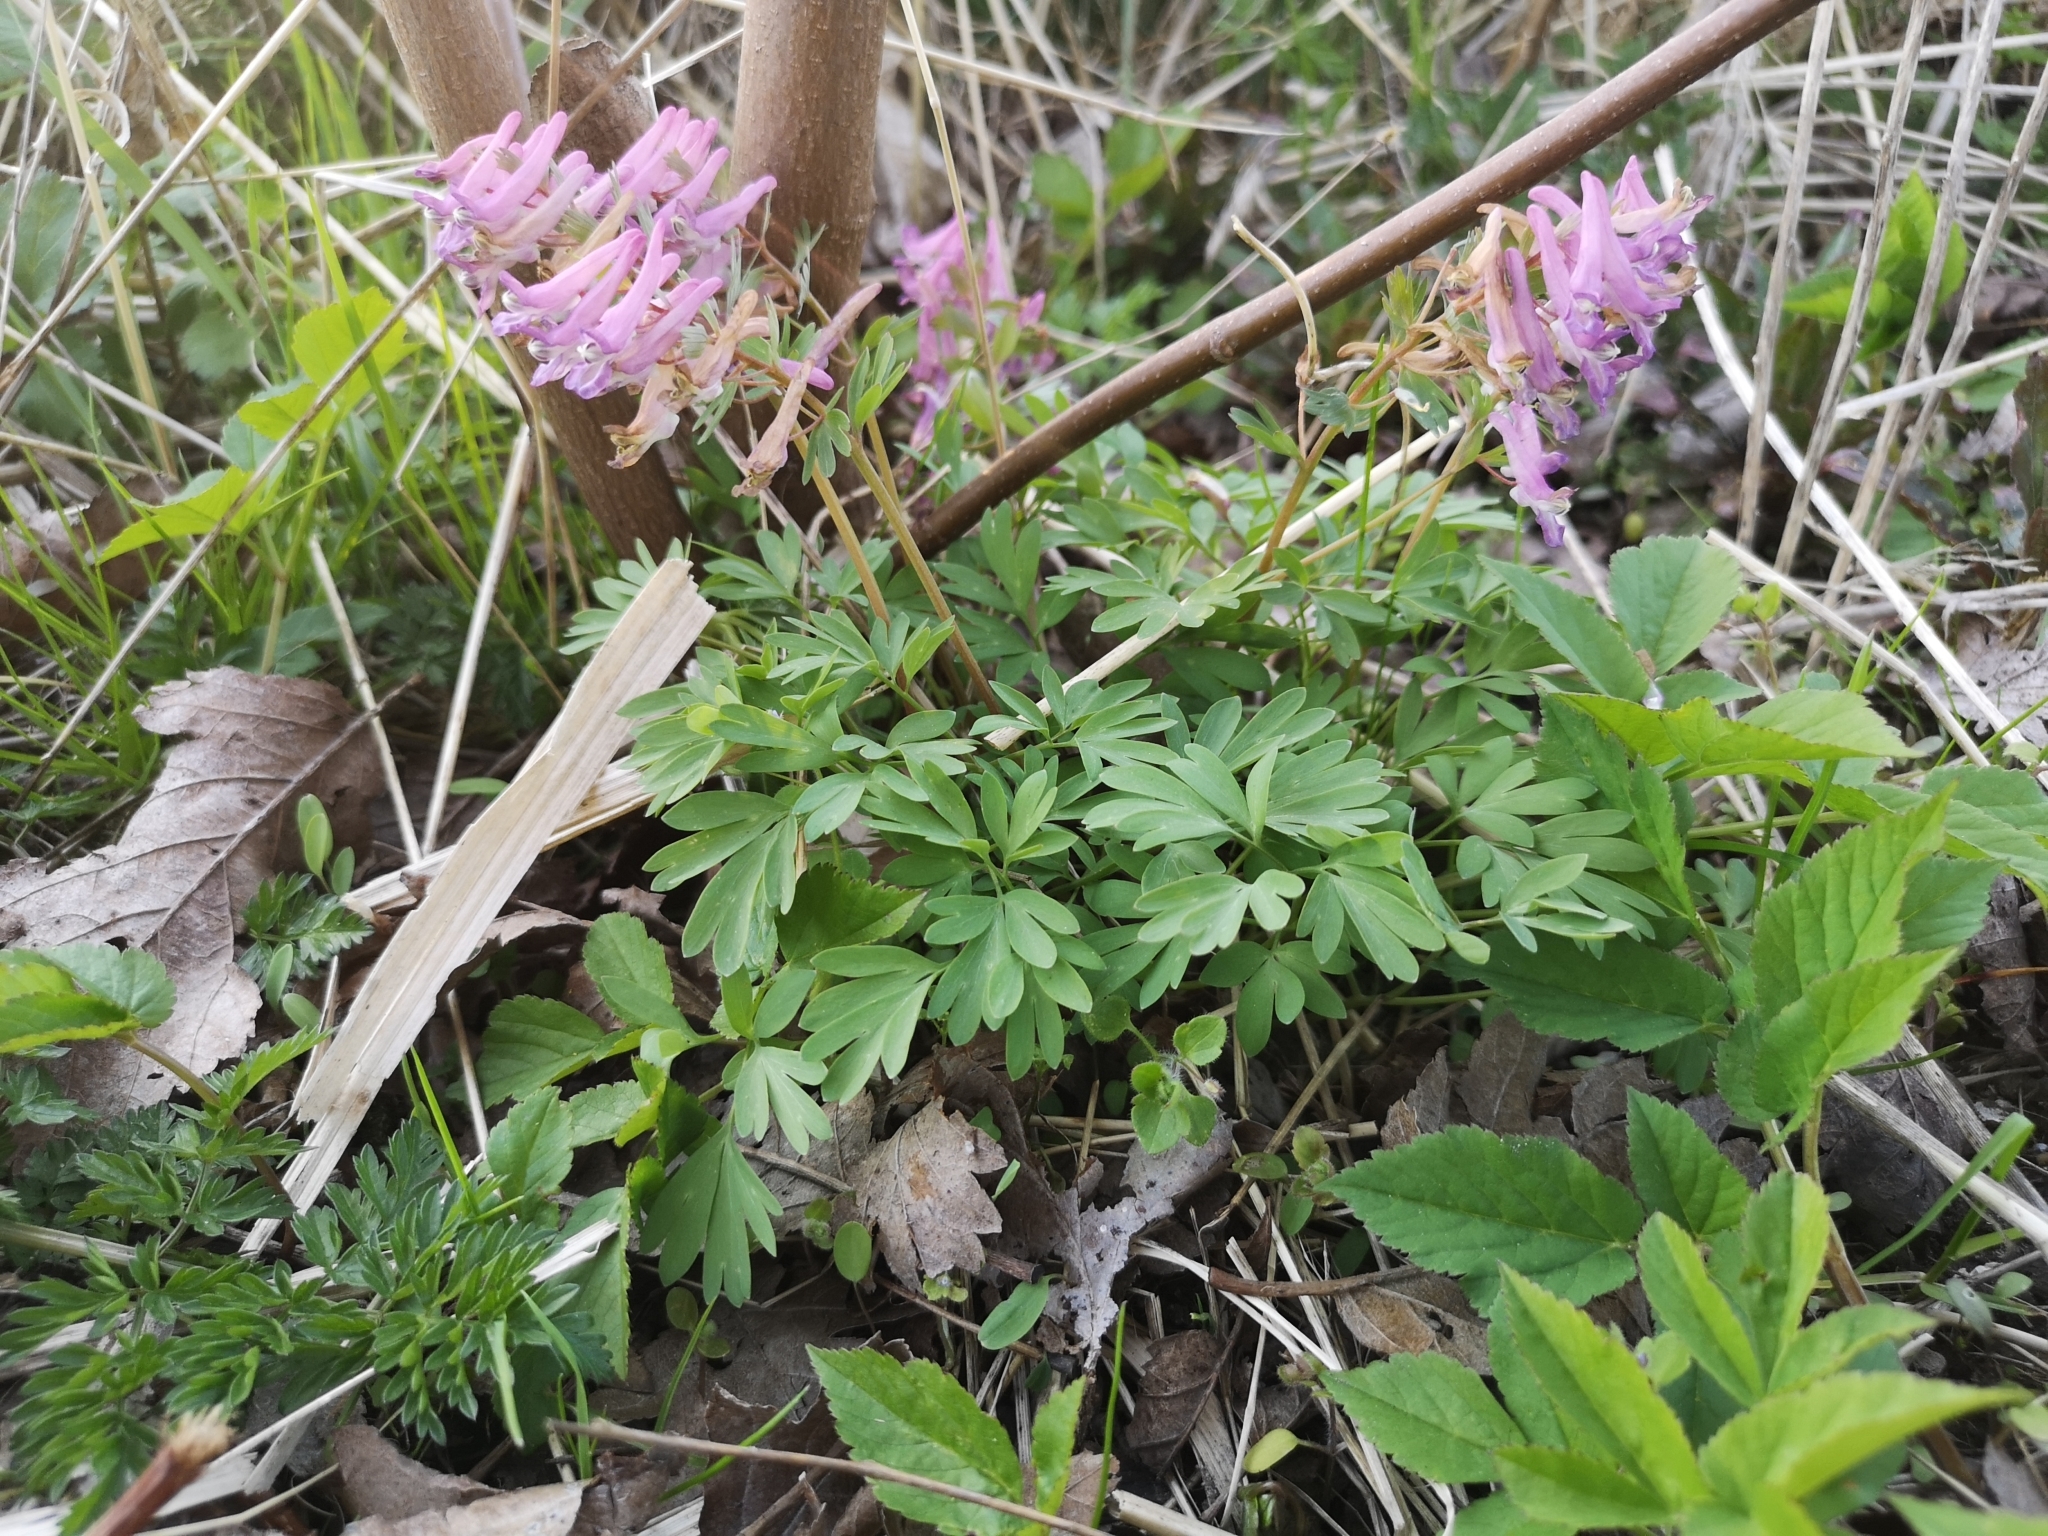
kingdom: Plantae
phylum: Tracheophyta
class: Magnoliopsida
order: Ranunculales
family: Papaveraceae
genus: Corydalis
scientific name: Corydalis solida
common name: Bird-in-a-bush
